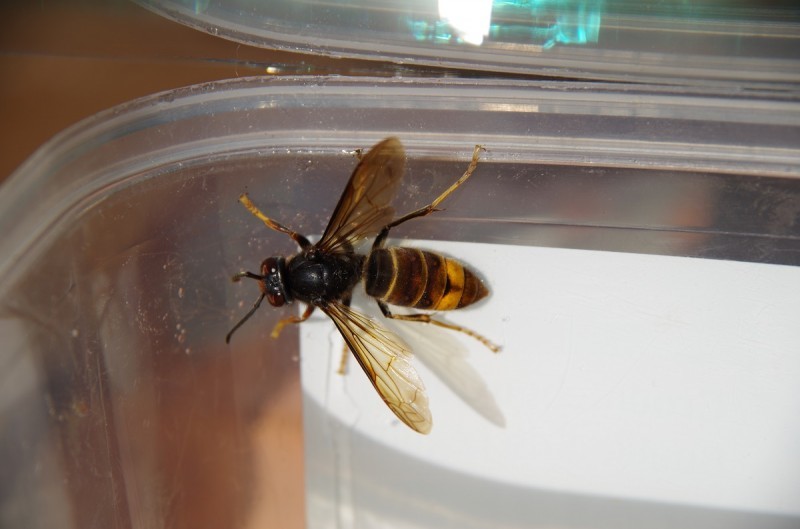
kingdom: Animalia
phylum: Arthropoda
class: Insecta
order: Hymenoptera
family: Vespidae
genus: Vespa
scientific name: Vespa velutina
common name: Asian hornet
